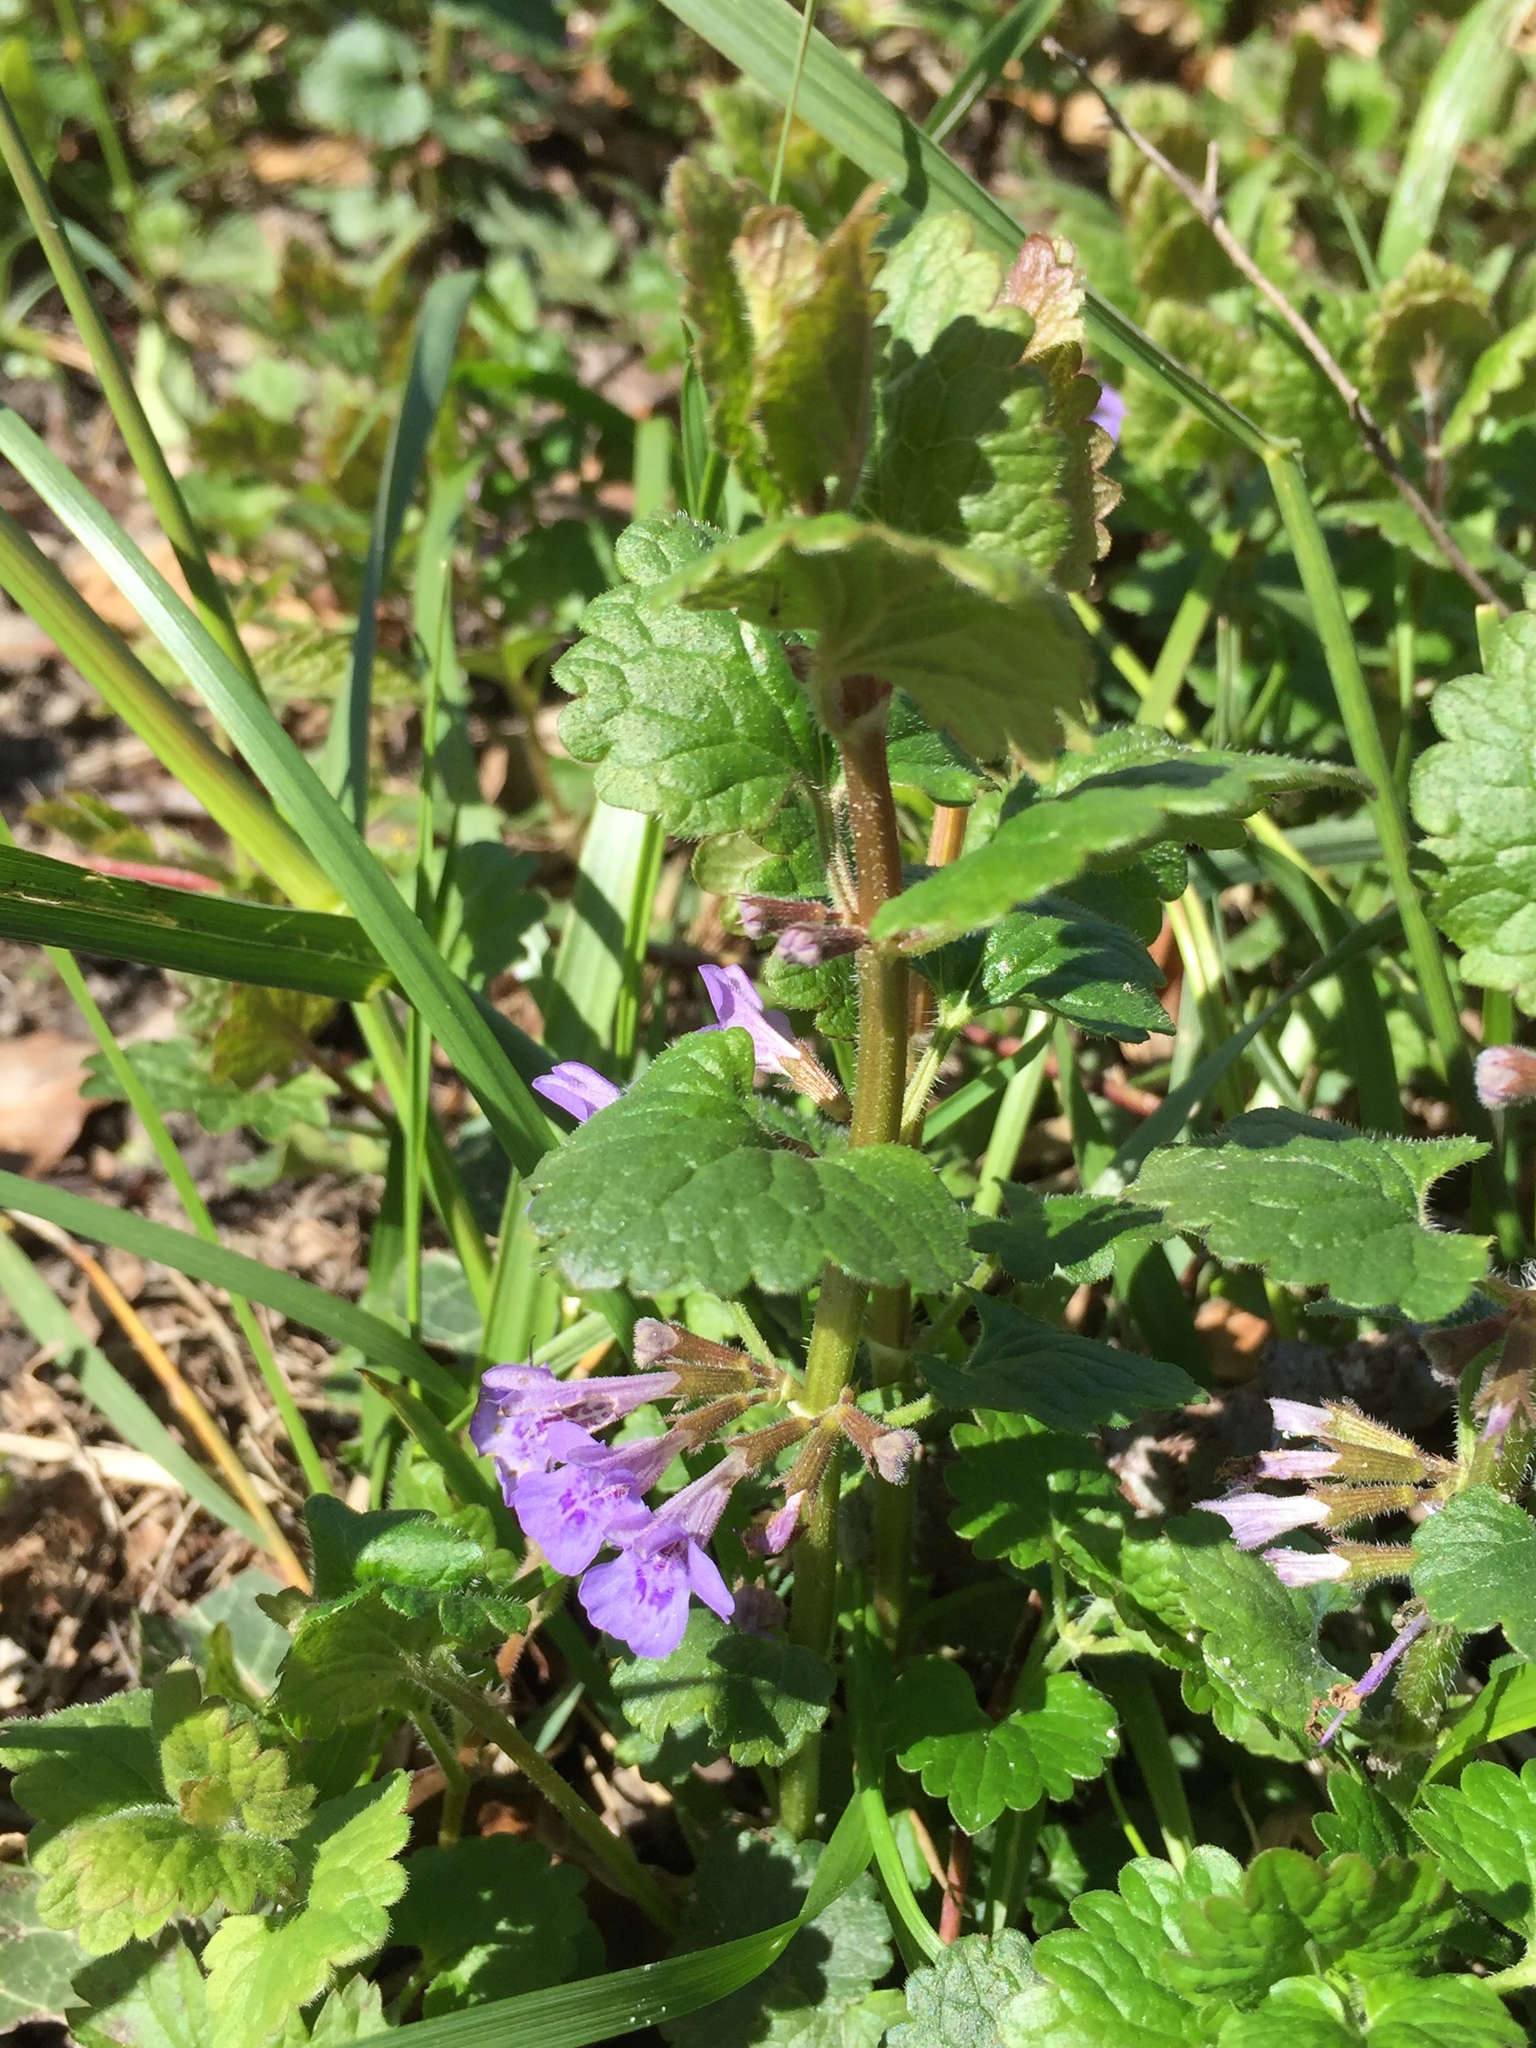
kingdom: Plantae
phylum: Tracheophyta
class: Magnoliopsida
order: Lamiales
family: Lamiaceae
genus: Glechoma
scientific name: Glechoma hederacea
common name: Ground ivy
